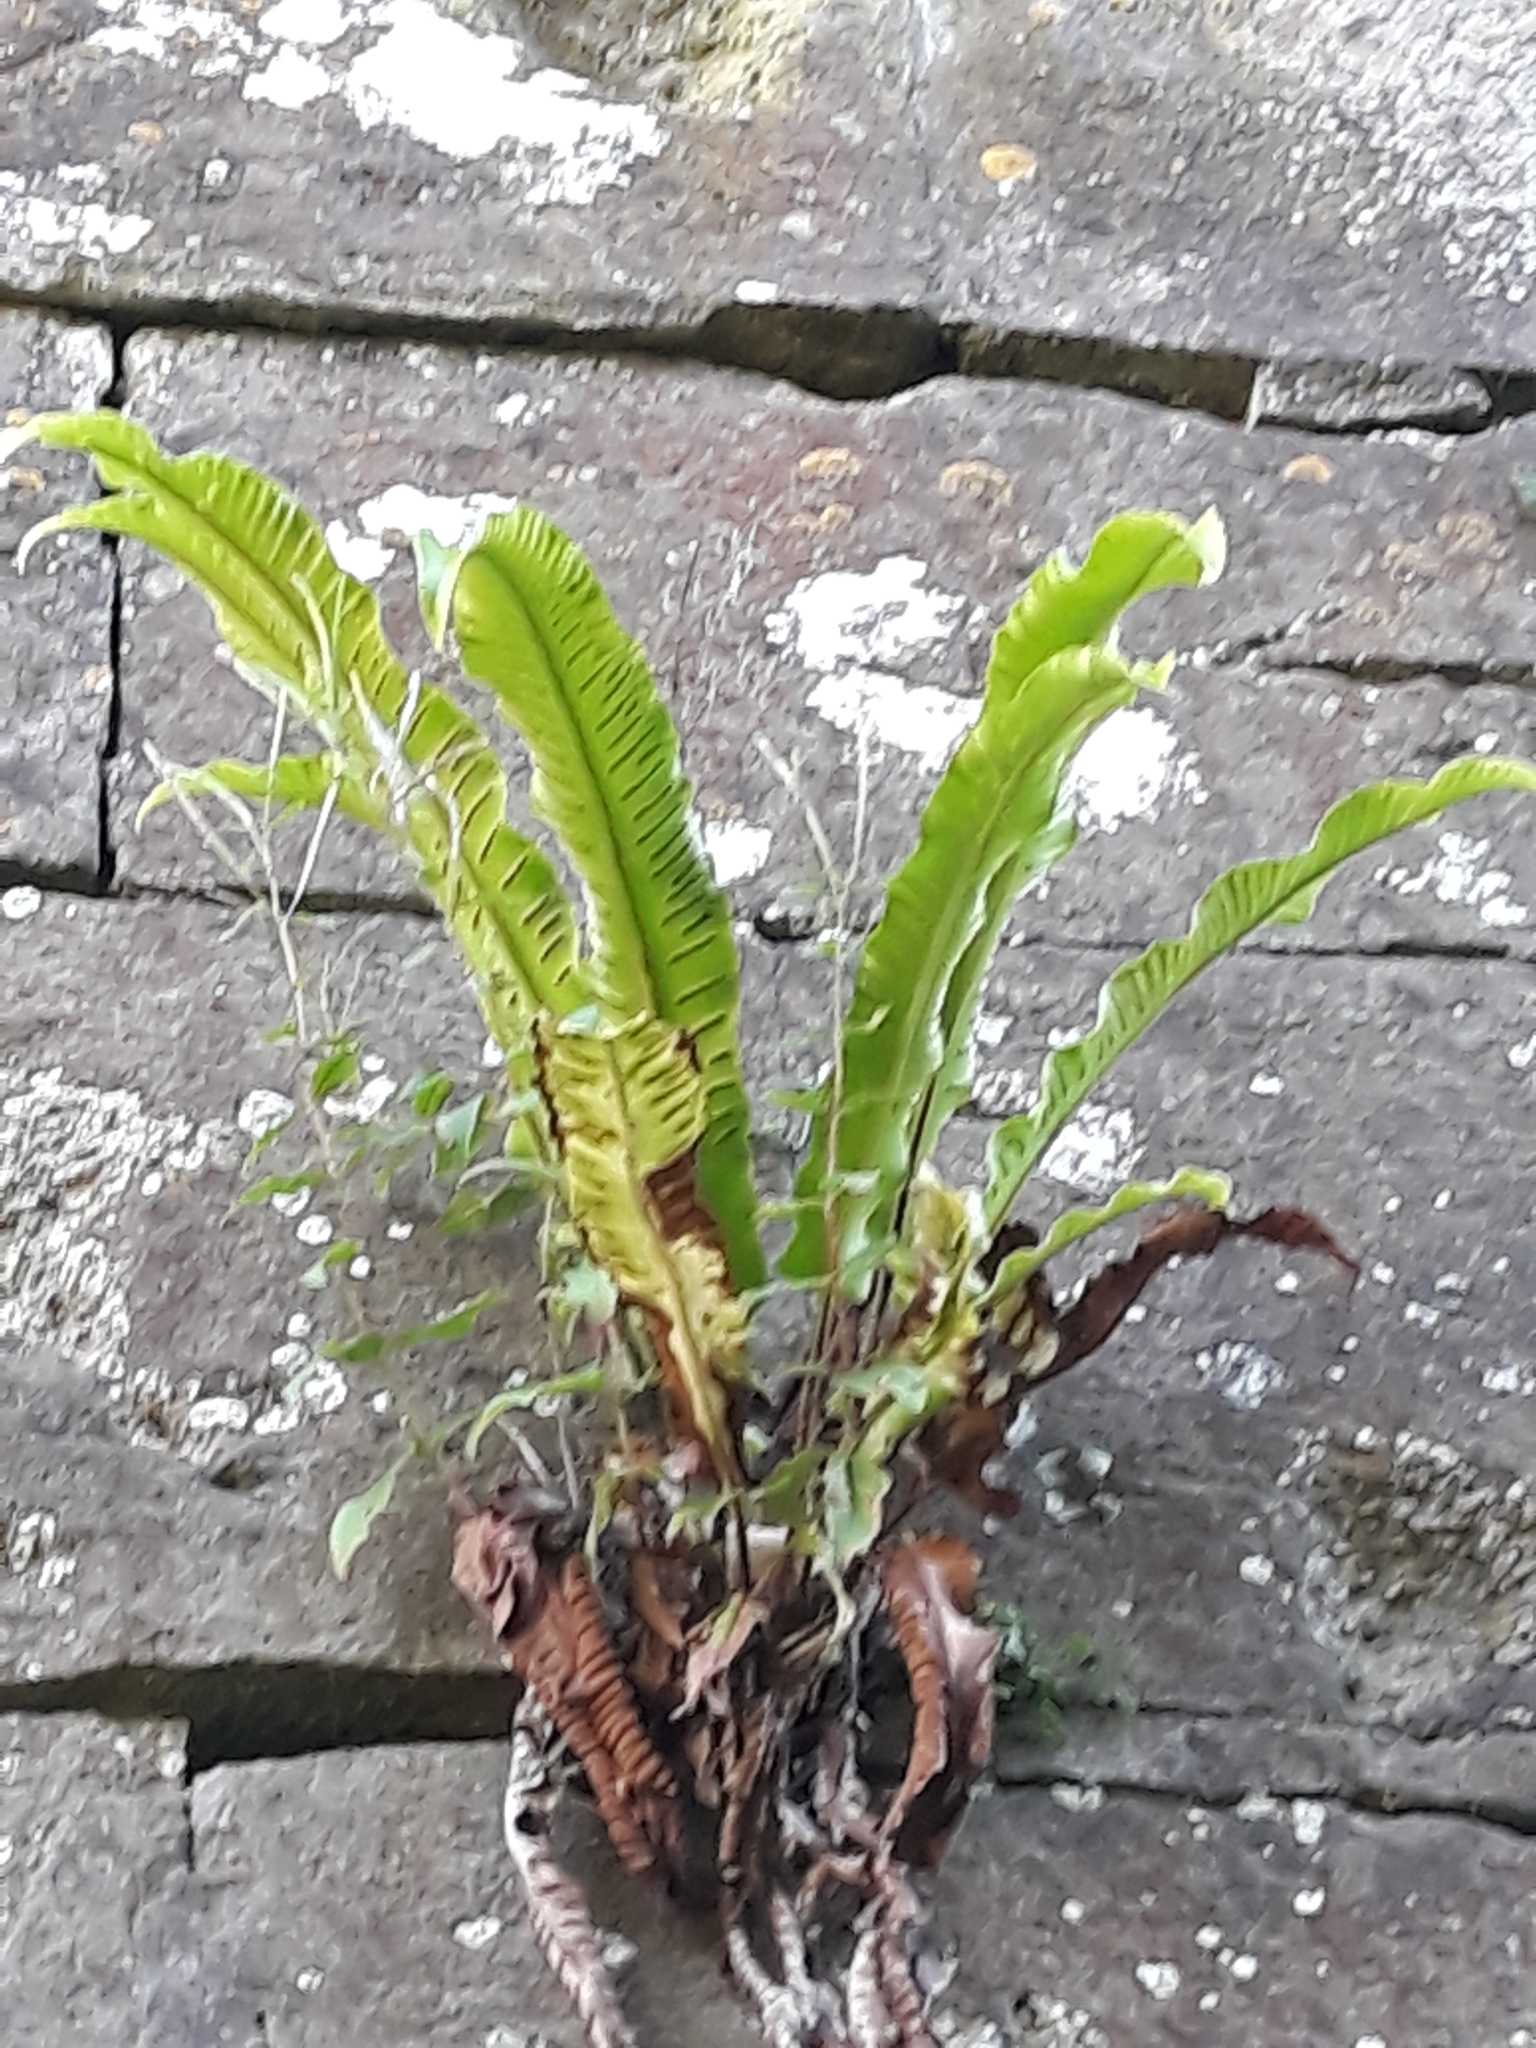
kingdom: Plantae
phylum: Tracheophyta
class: Polypodiopsida
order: Polypodiales
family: Aspleniaceae
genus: Asplenium
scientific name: Asplenium scolopendrium
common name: Hart's-tongue fern
